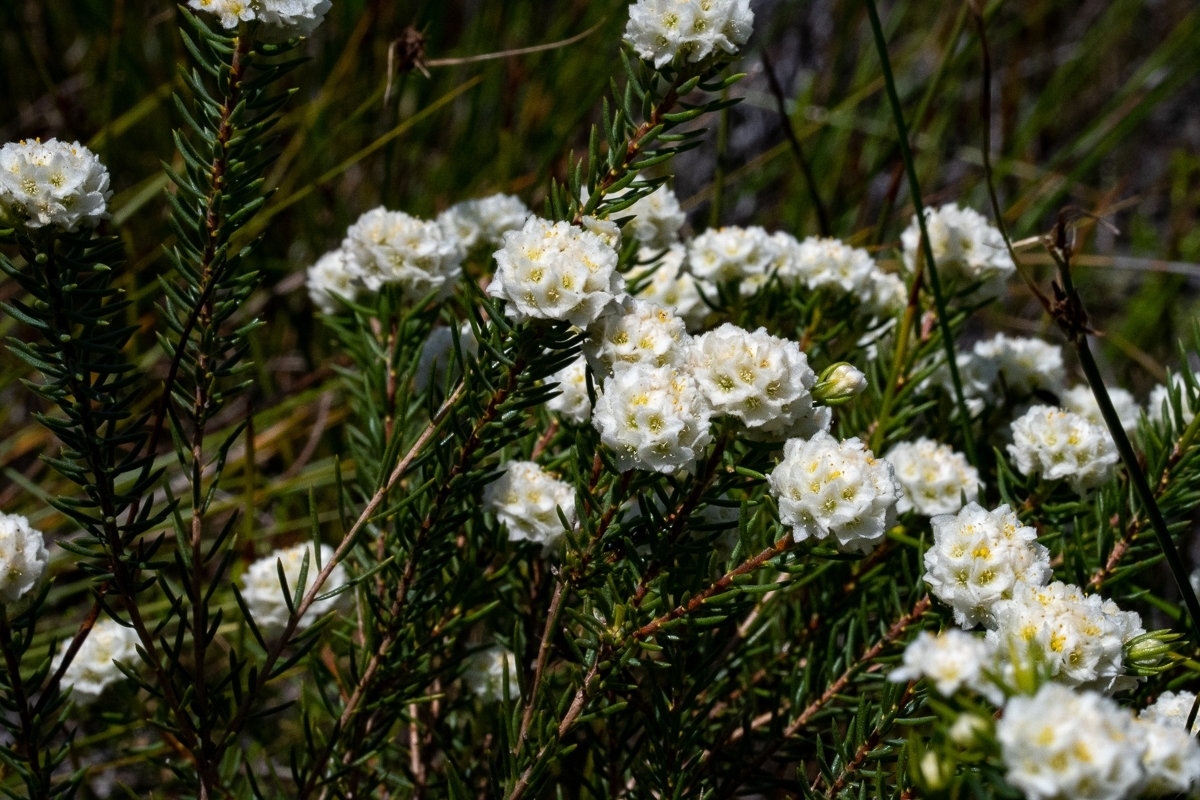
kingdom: Plantae
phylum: Tracheophyta
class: Magnoliopsida
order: Malvales
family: Thymelaeaceae
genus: Lachnaea
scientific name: Lachnaea densiflora
